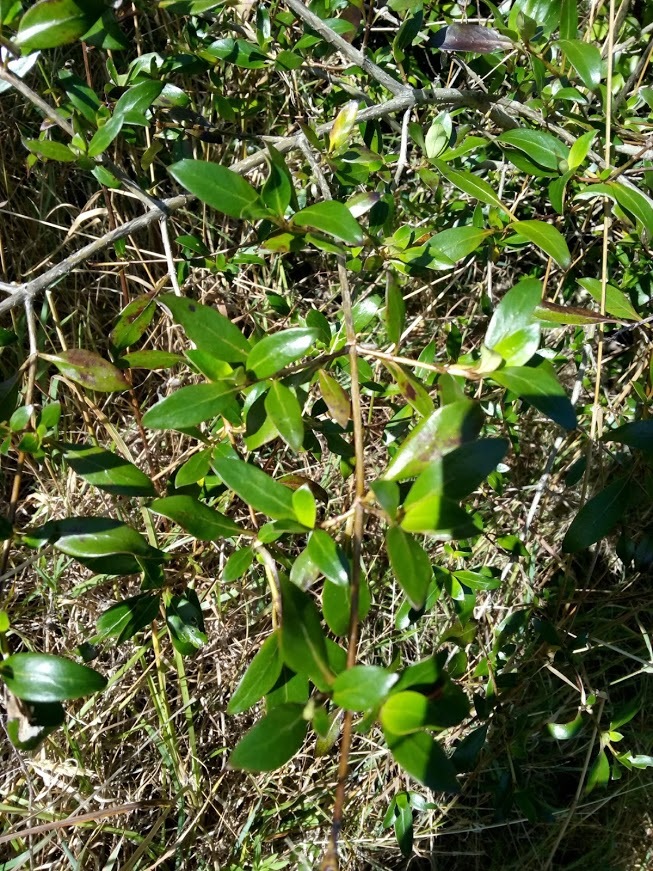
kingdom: Plantae
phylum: Tracheophyta
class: Magnoliopsida
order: Gentianales
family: Rubiaceae
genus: Coprosma
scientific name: Coprosma cunninghamii
